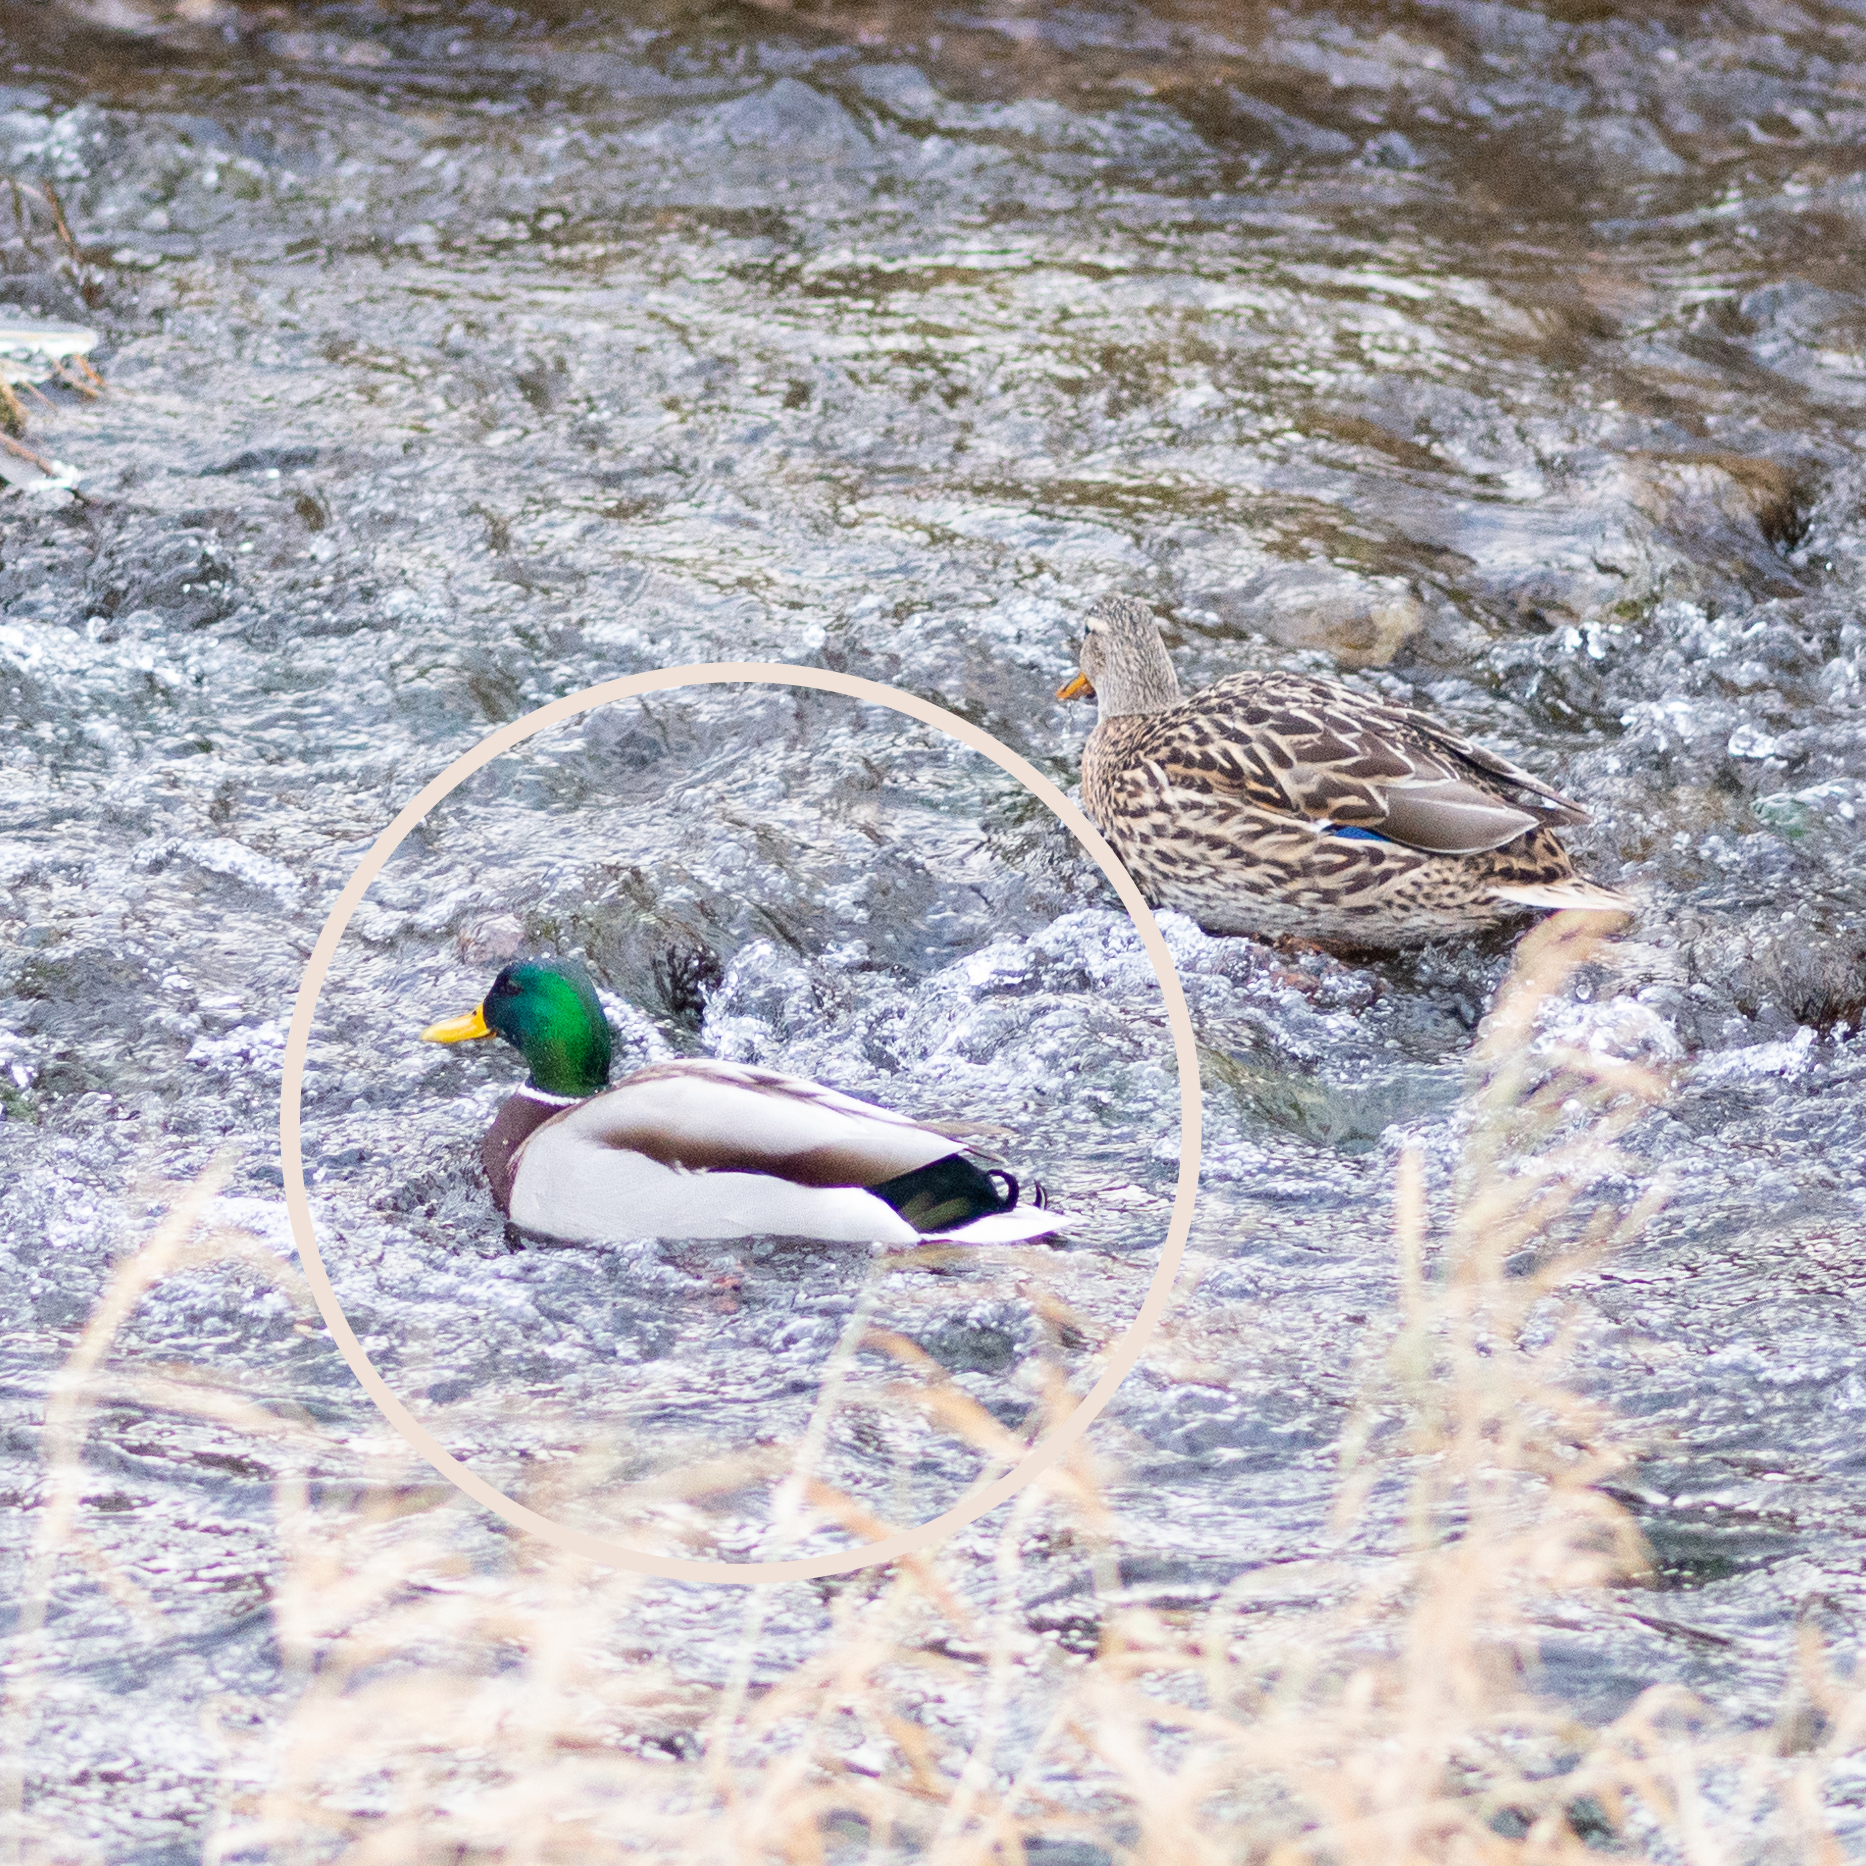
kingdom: Animalia
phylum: Chordata
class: Aves
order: Anseriformes
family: Anatidae
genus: Anas
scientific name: Anas platyrhynchos
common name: Mallard
